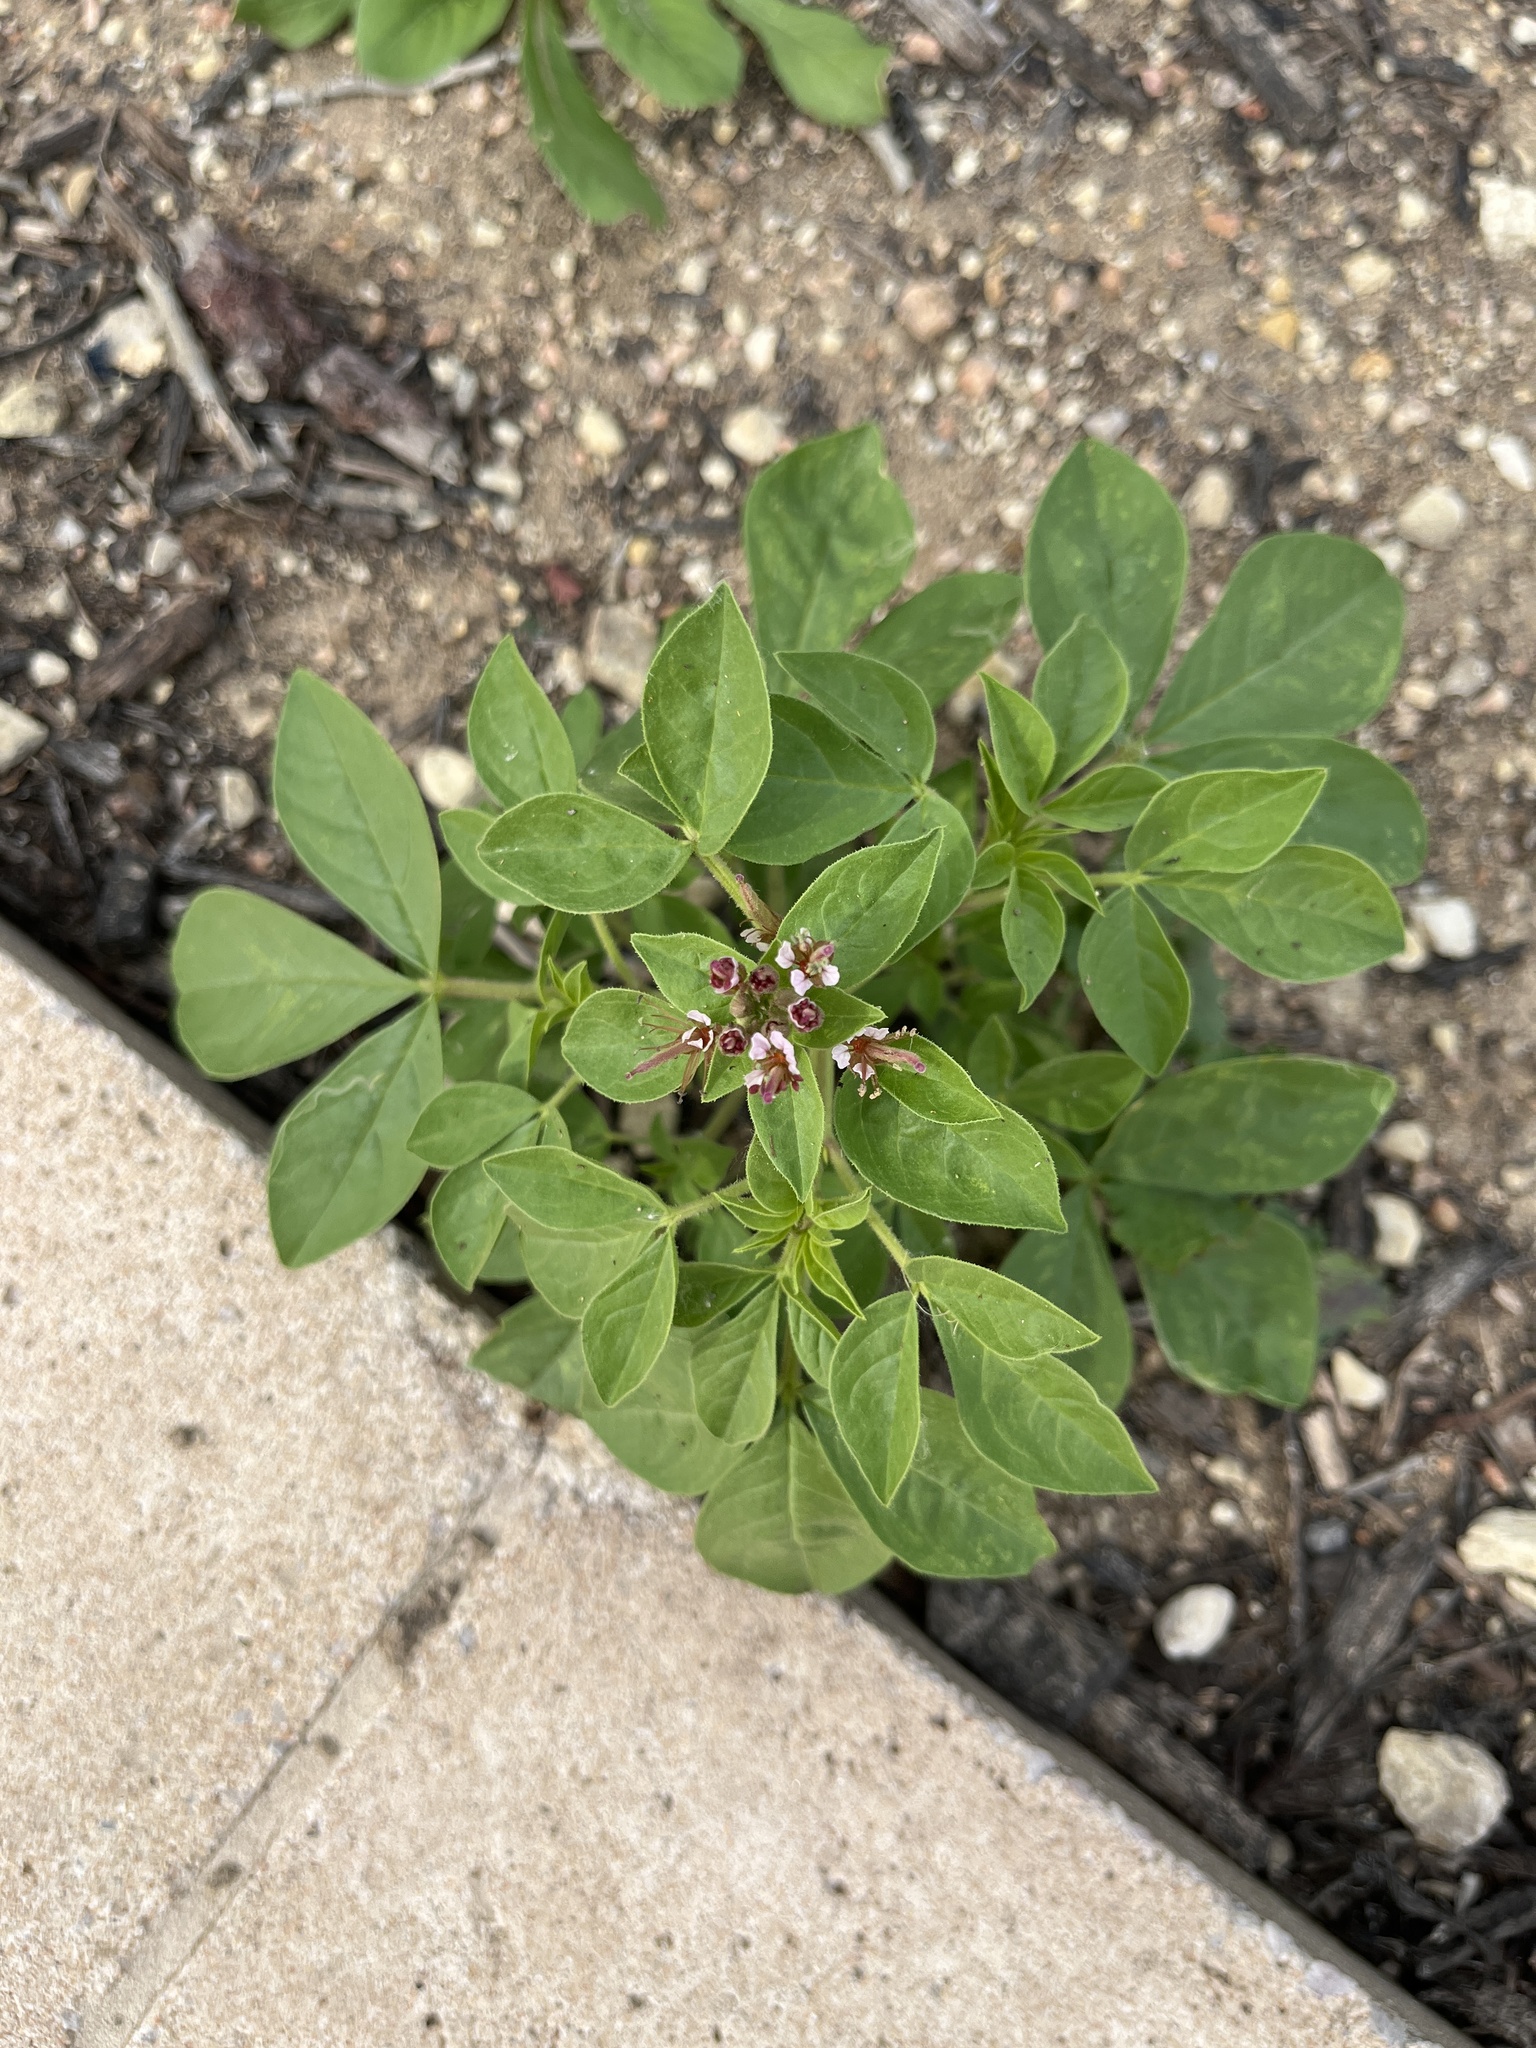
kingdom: Plantae
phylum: Tracheophyta
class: Magnoliopsida
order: Brassicales
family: Cleomaceae
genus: Polanisia
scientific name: Polanisia dodecandra
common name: Clammyweed
